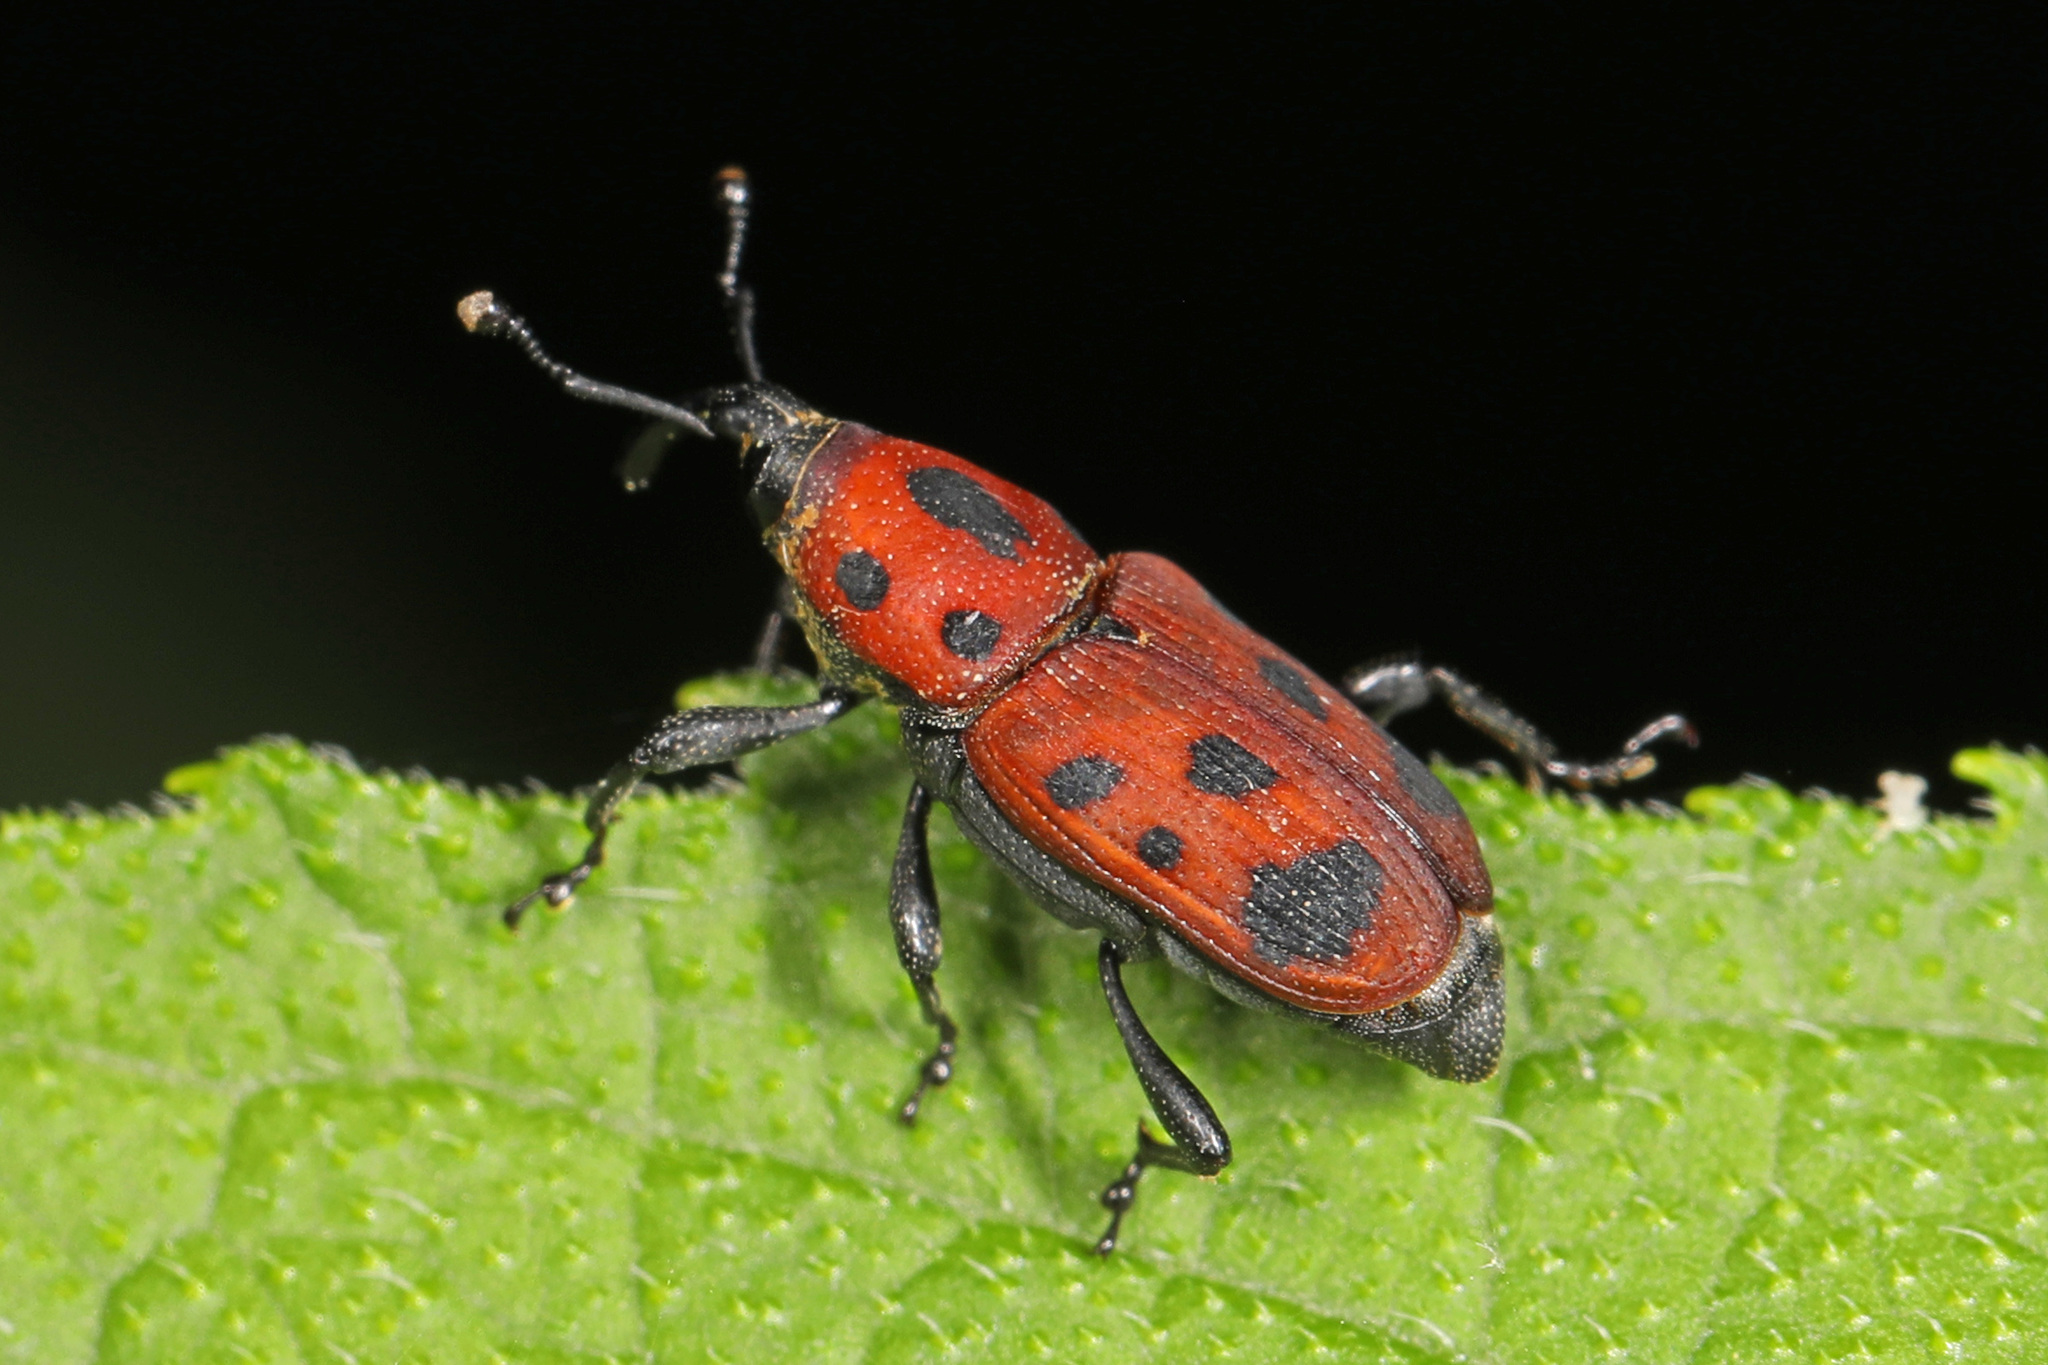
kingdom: Animalia
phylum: Arthropoda
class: Insecta
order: Coleoptera
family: Dryophthoridae
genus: Rhodobaenus
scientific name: Rhodobaenus tredecimpunctatus
